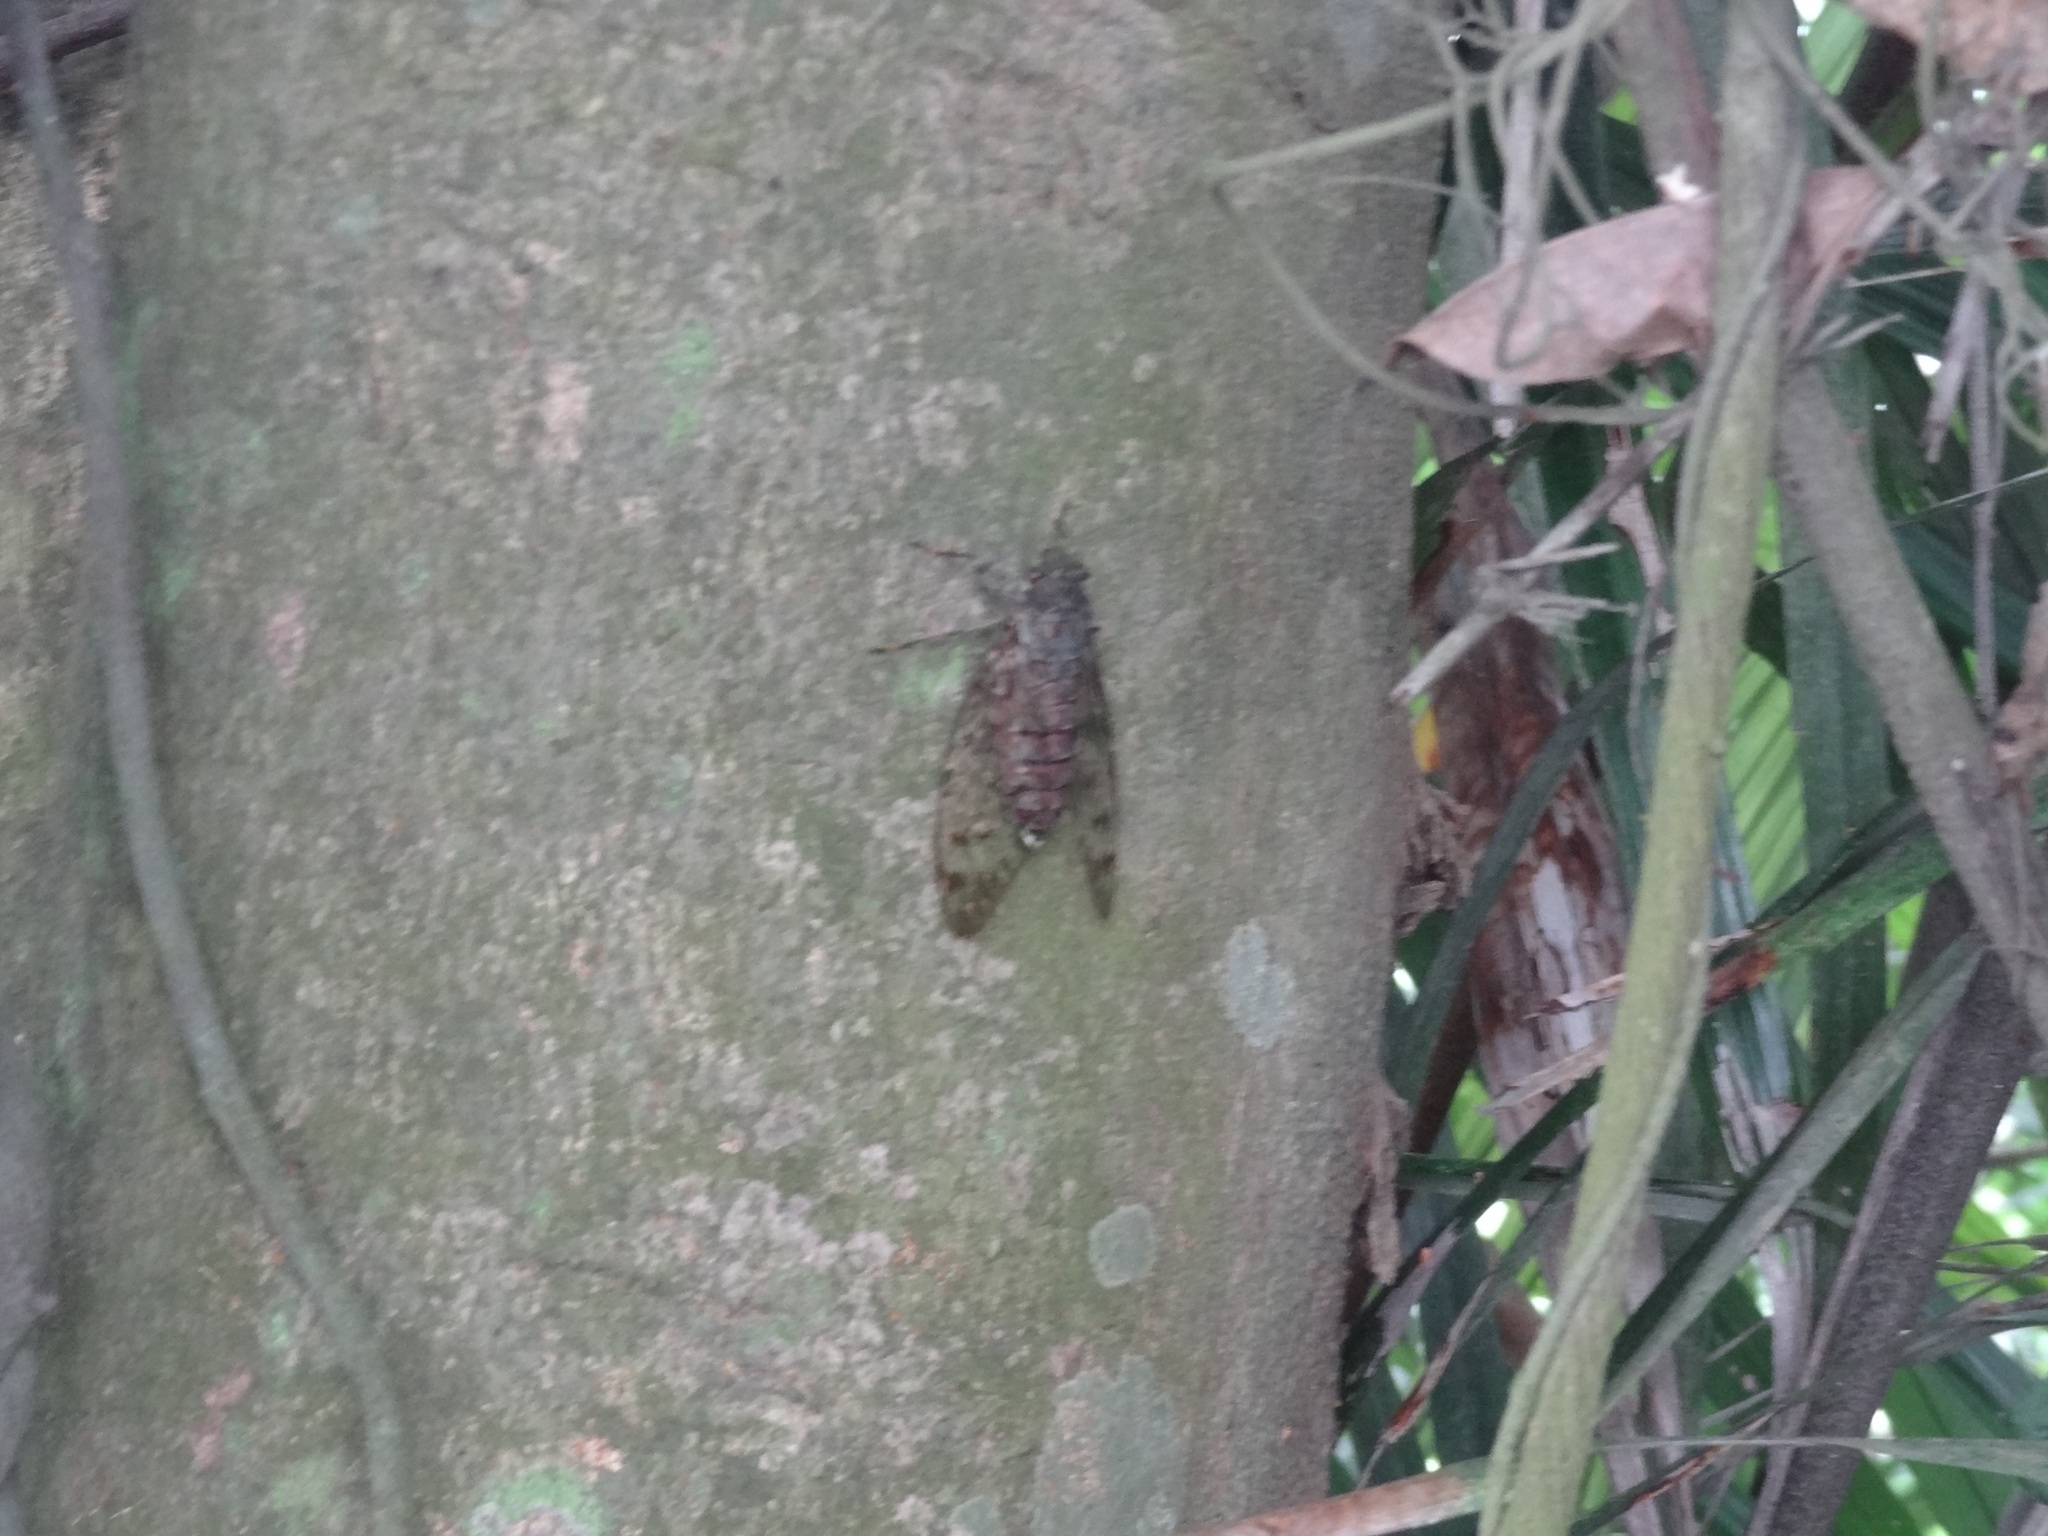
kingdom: Animalia
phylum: Arthropoda
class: Insecta
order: Hemiptera
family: Cicadidae
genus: Pomponia
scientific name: Pomponia yayeyamana
